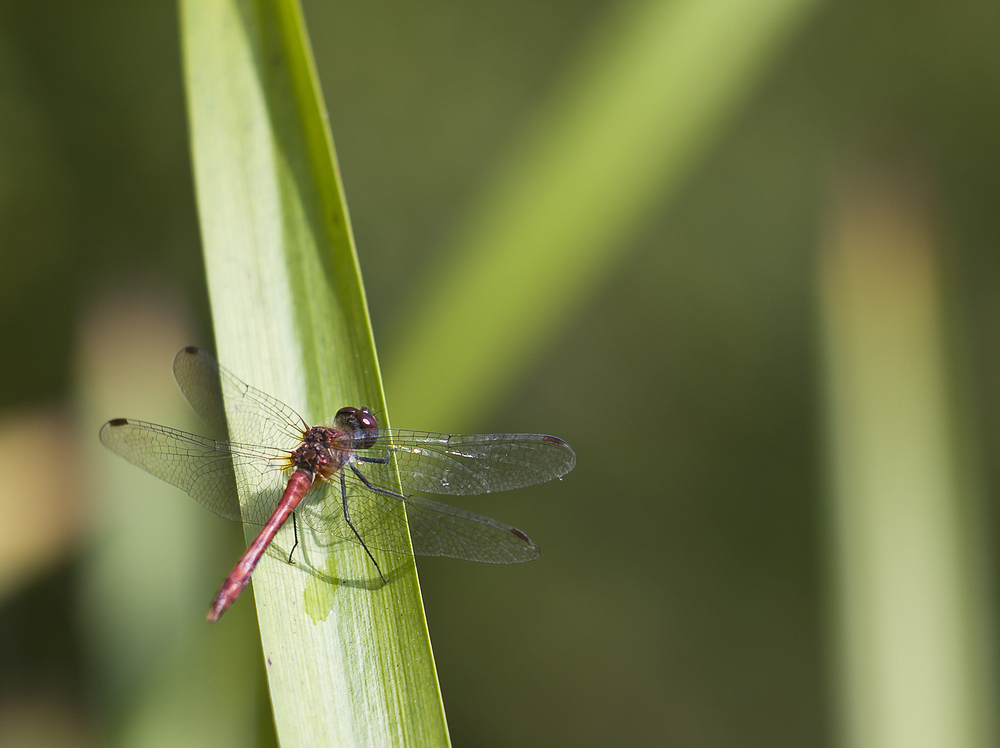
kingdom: Animalia
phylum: Arthropoda
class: Insecta
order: Odonata
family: Libellulidae
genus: Sympetrum
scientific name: Sympetrum sanguineum
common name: Ruddy darter
